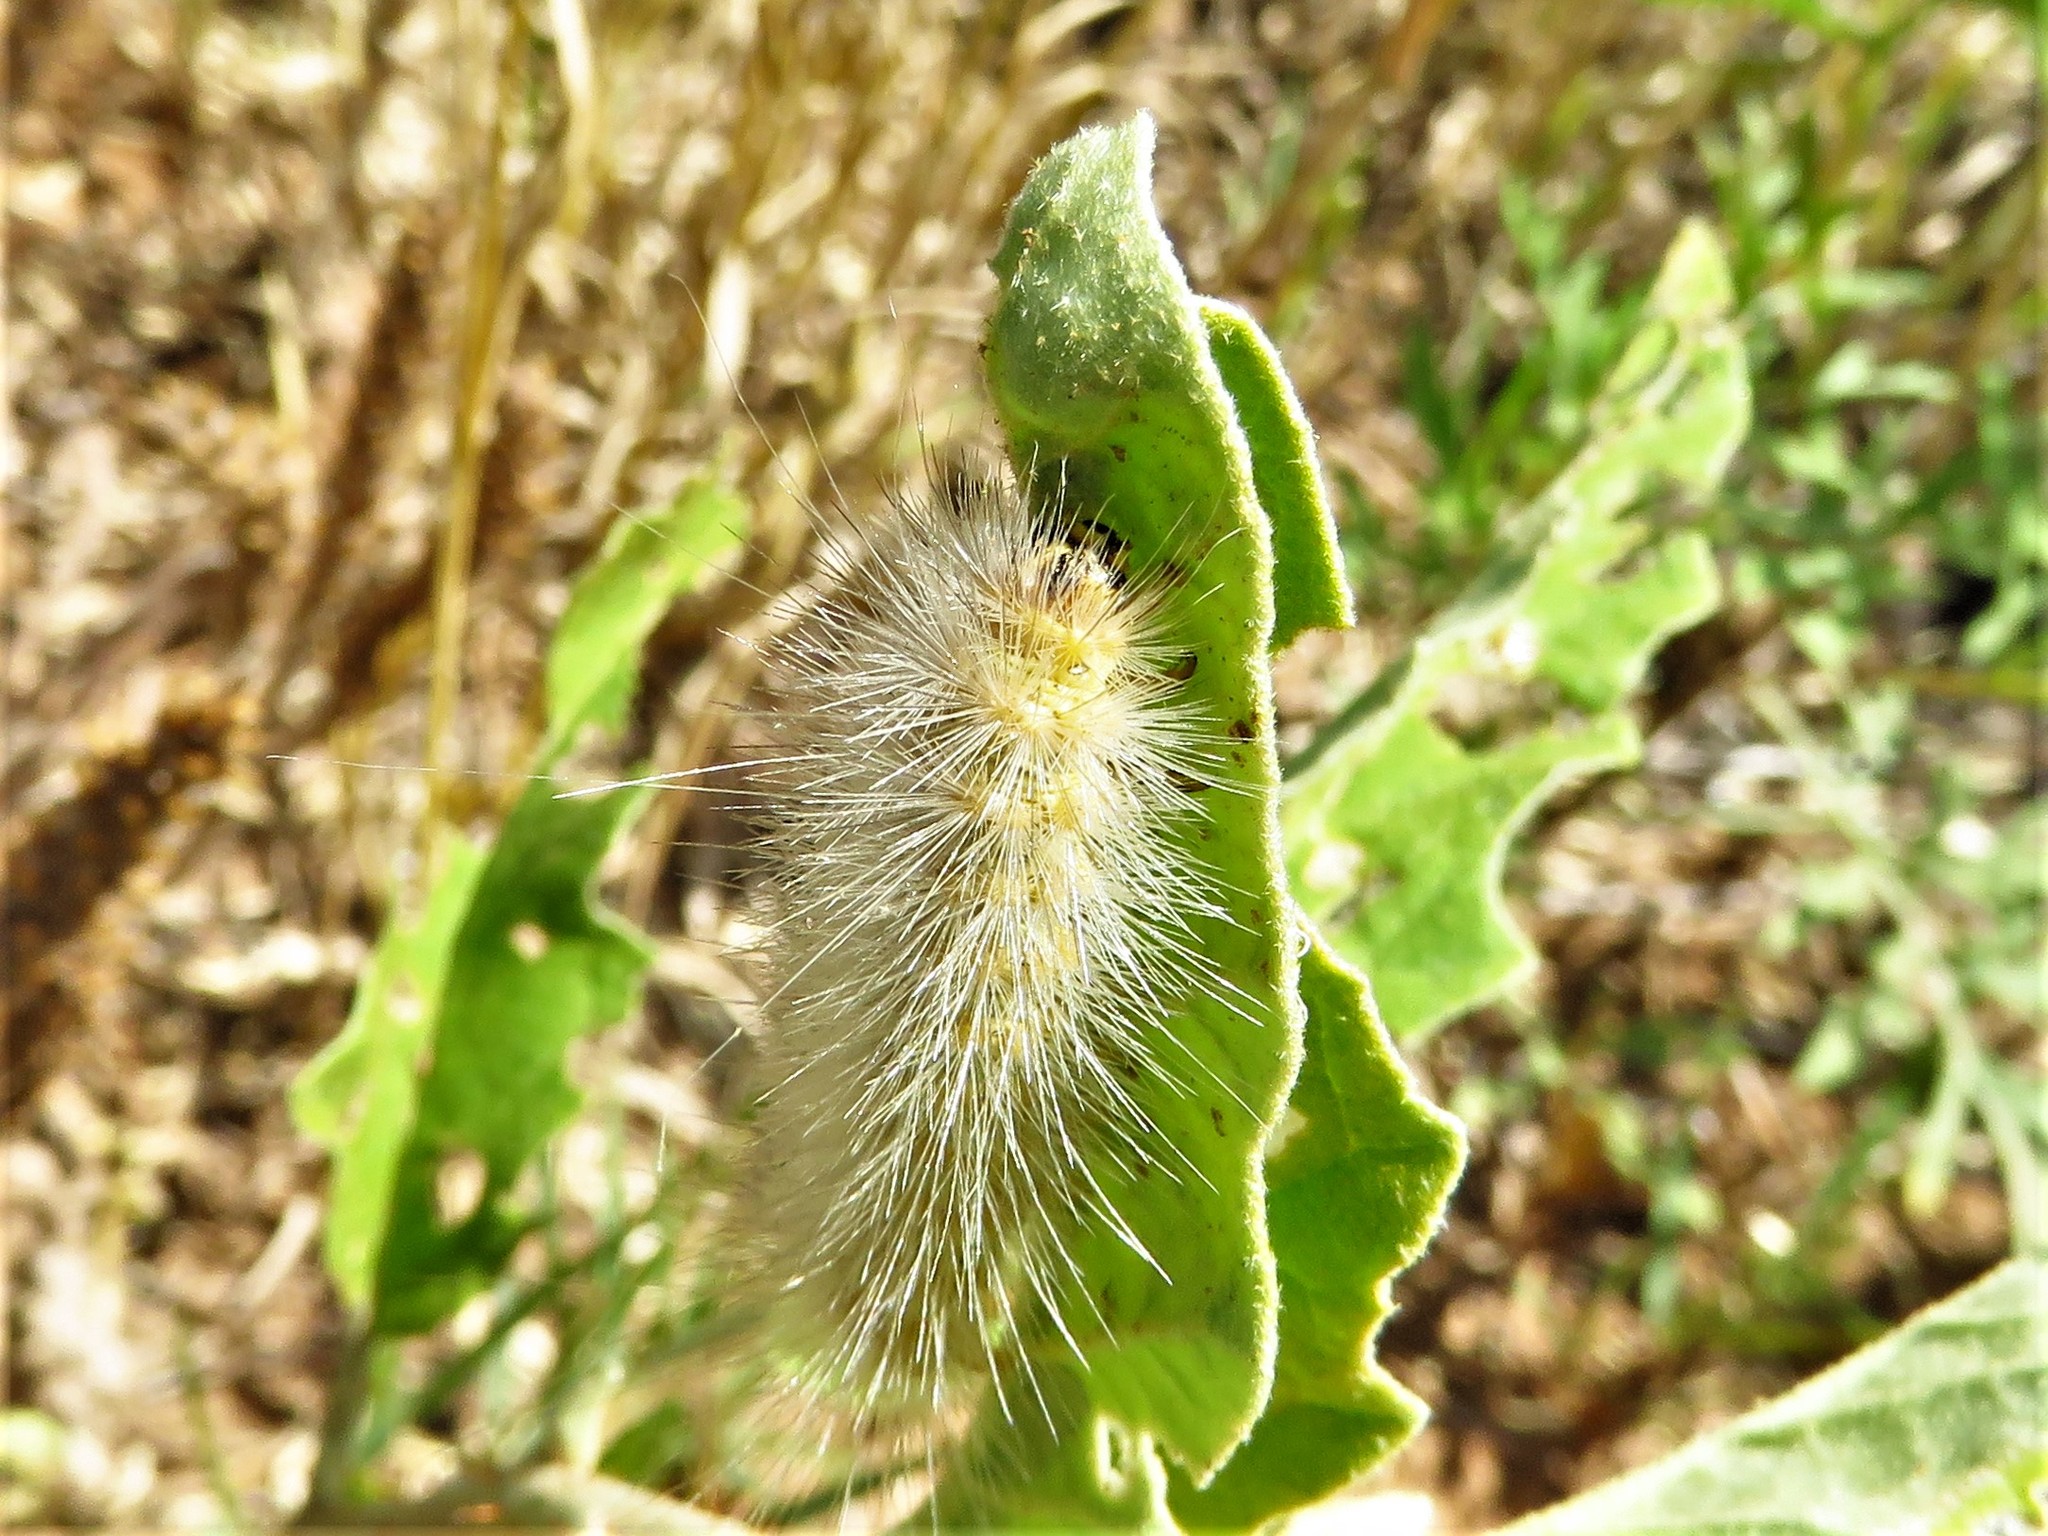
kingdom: Animalia
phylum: Arthropoda
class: Insecta
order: Lepidoptera
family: Erebidae
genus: Estigmene
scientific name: Estigmene acrea
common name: Salt marsh moth
